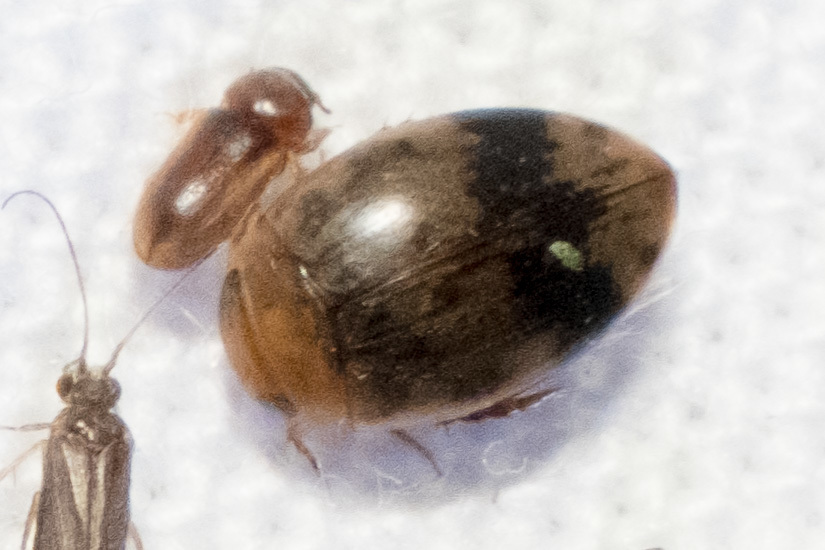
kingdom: Animalia
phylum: Arthropoda
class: Insecta
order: Coleoptera
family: Dytiscidae
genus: Laccophilus
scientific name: Laccophilus fasciatus
